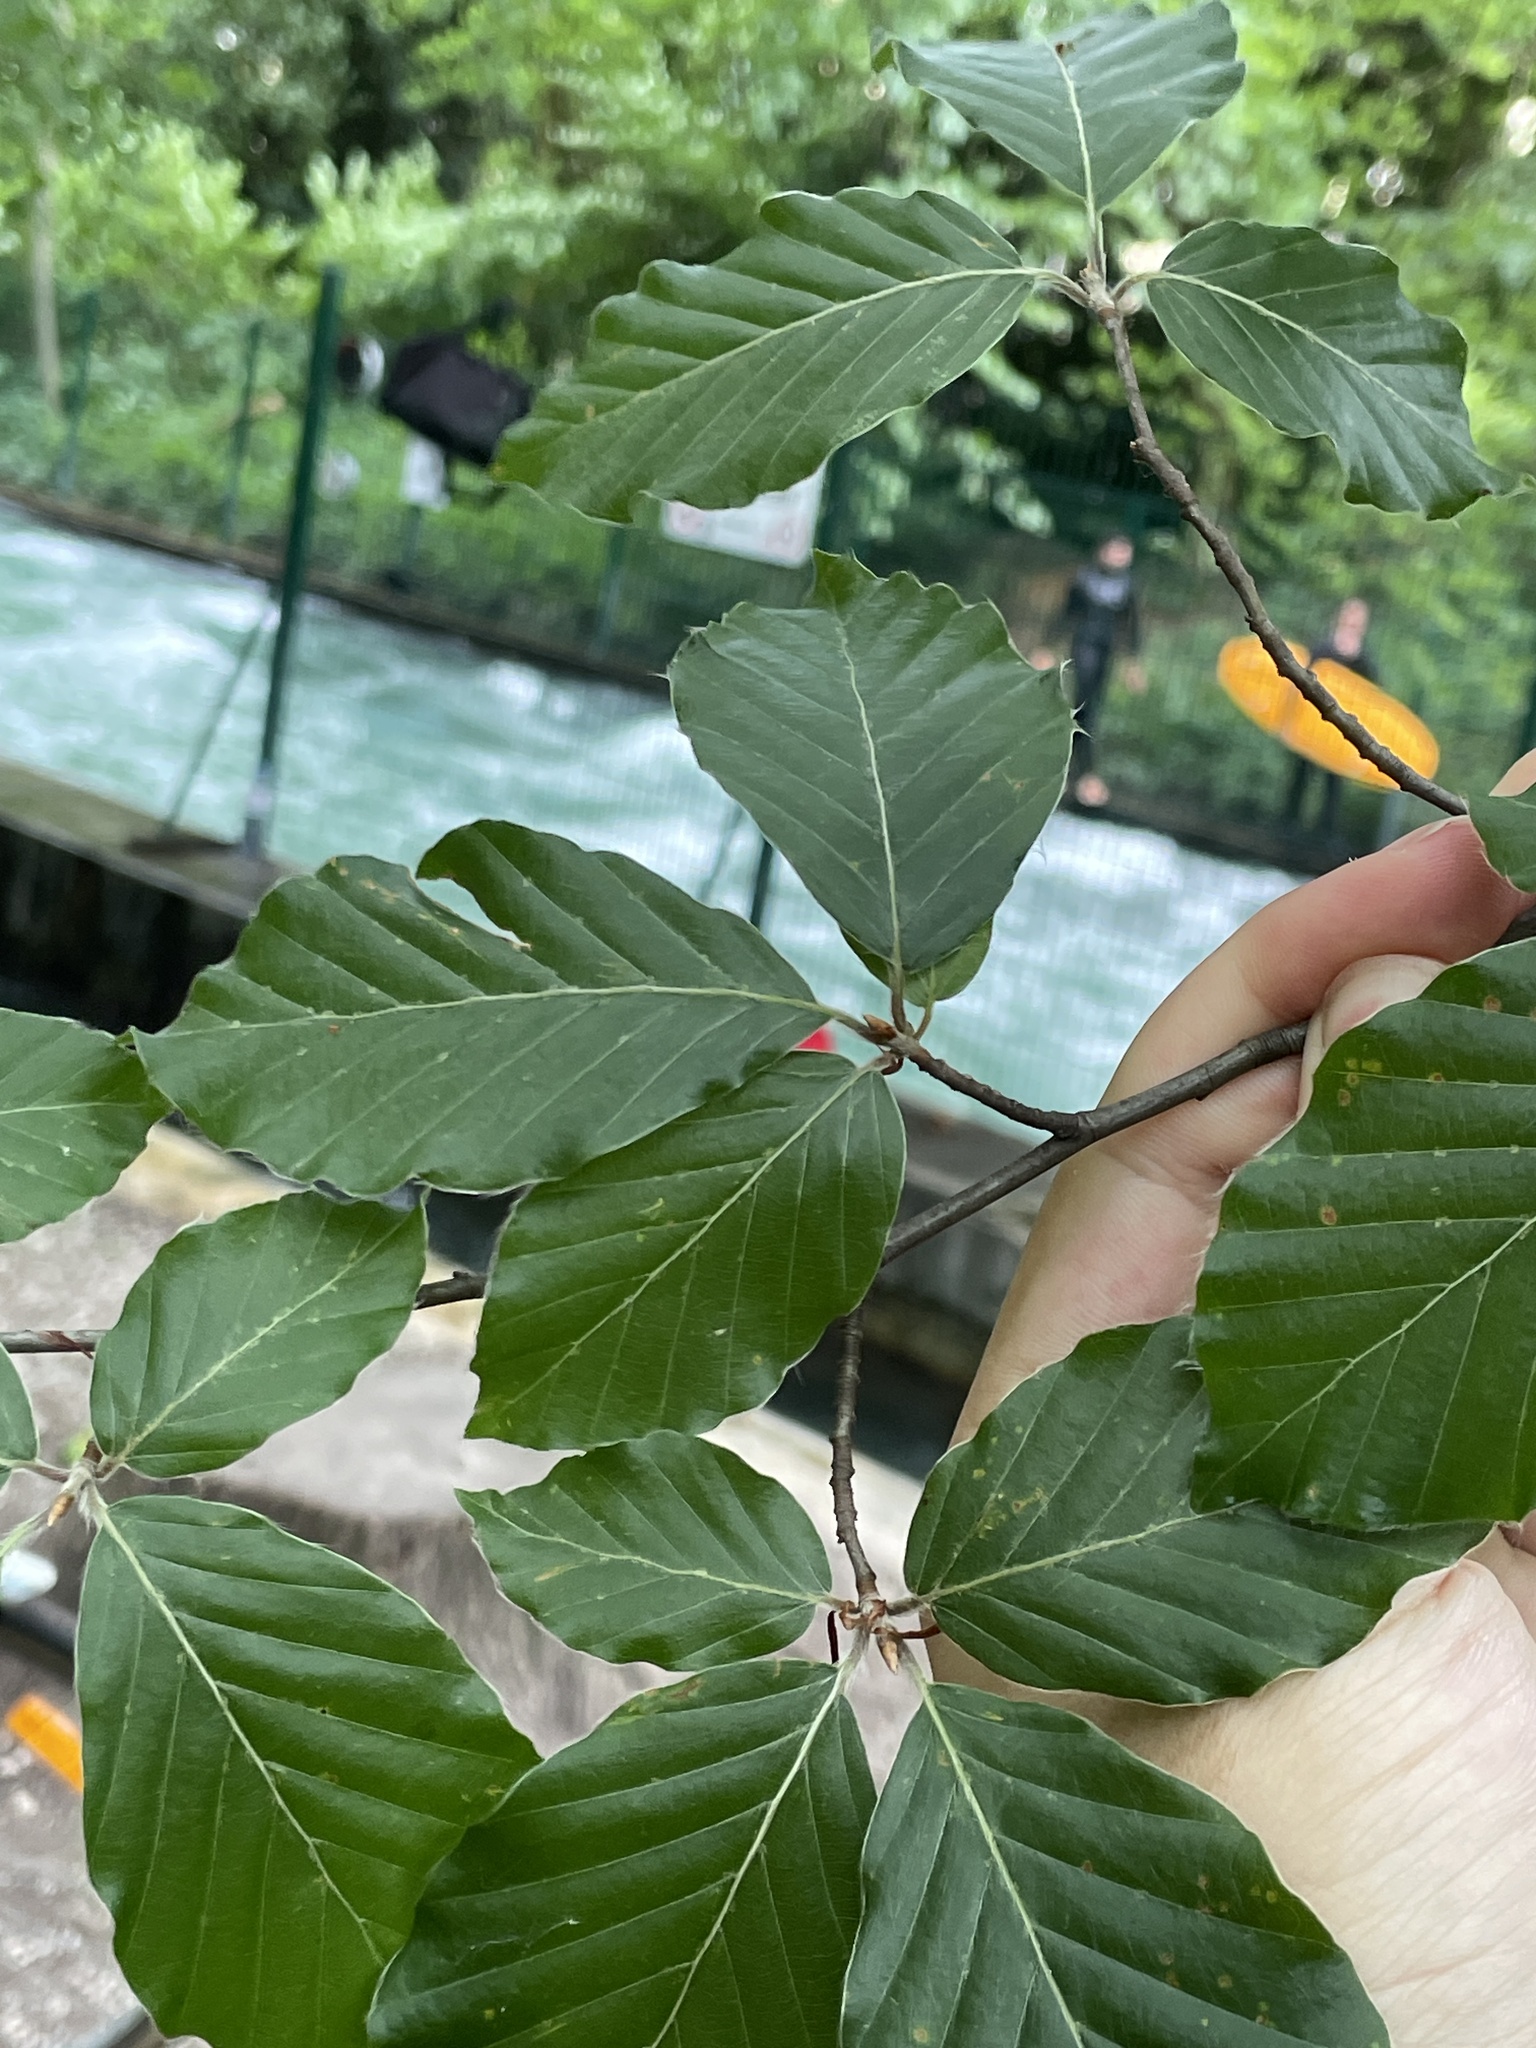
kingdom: Plantae
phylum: Tracheophyta
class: Magnoliopsida
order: Fagales
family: Fagaceae
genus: Fagus
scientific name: Fagus sylvatica
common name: Beech
